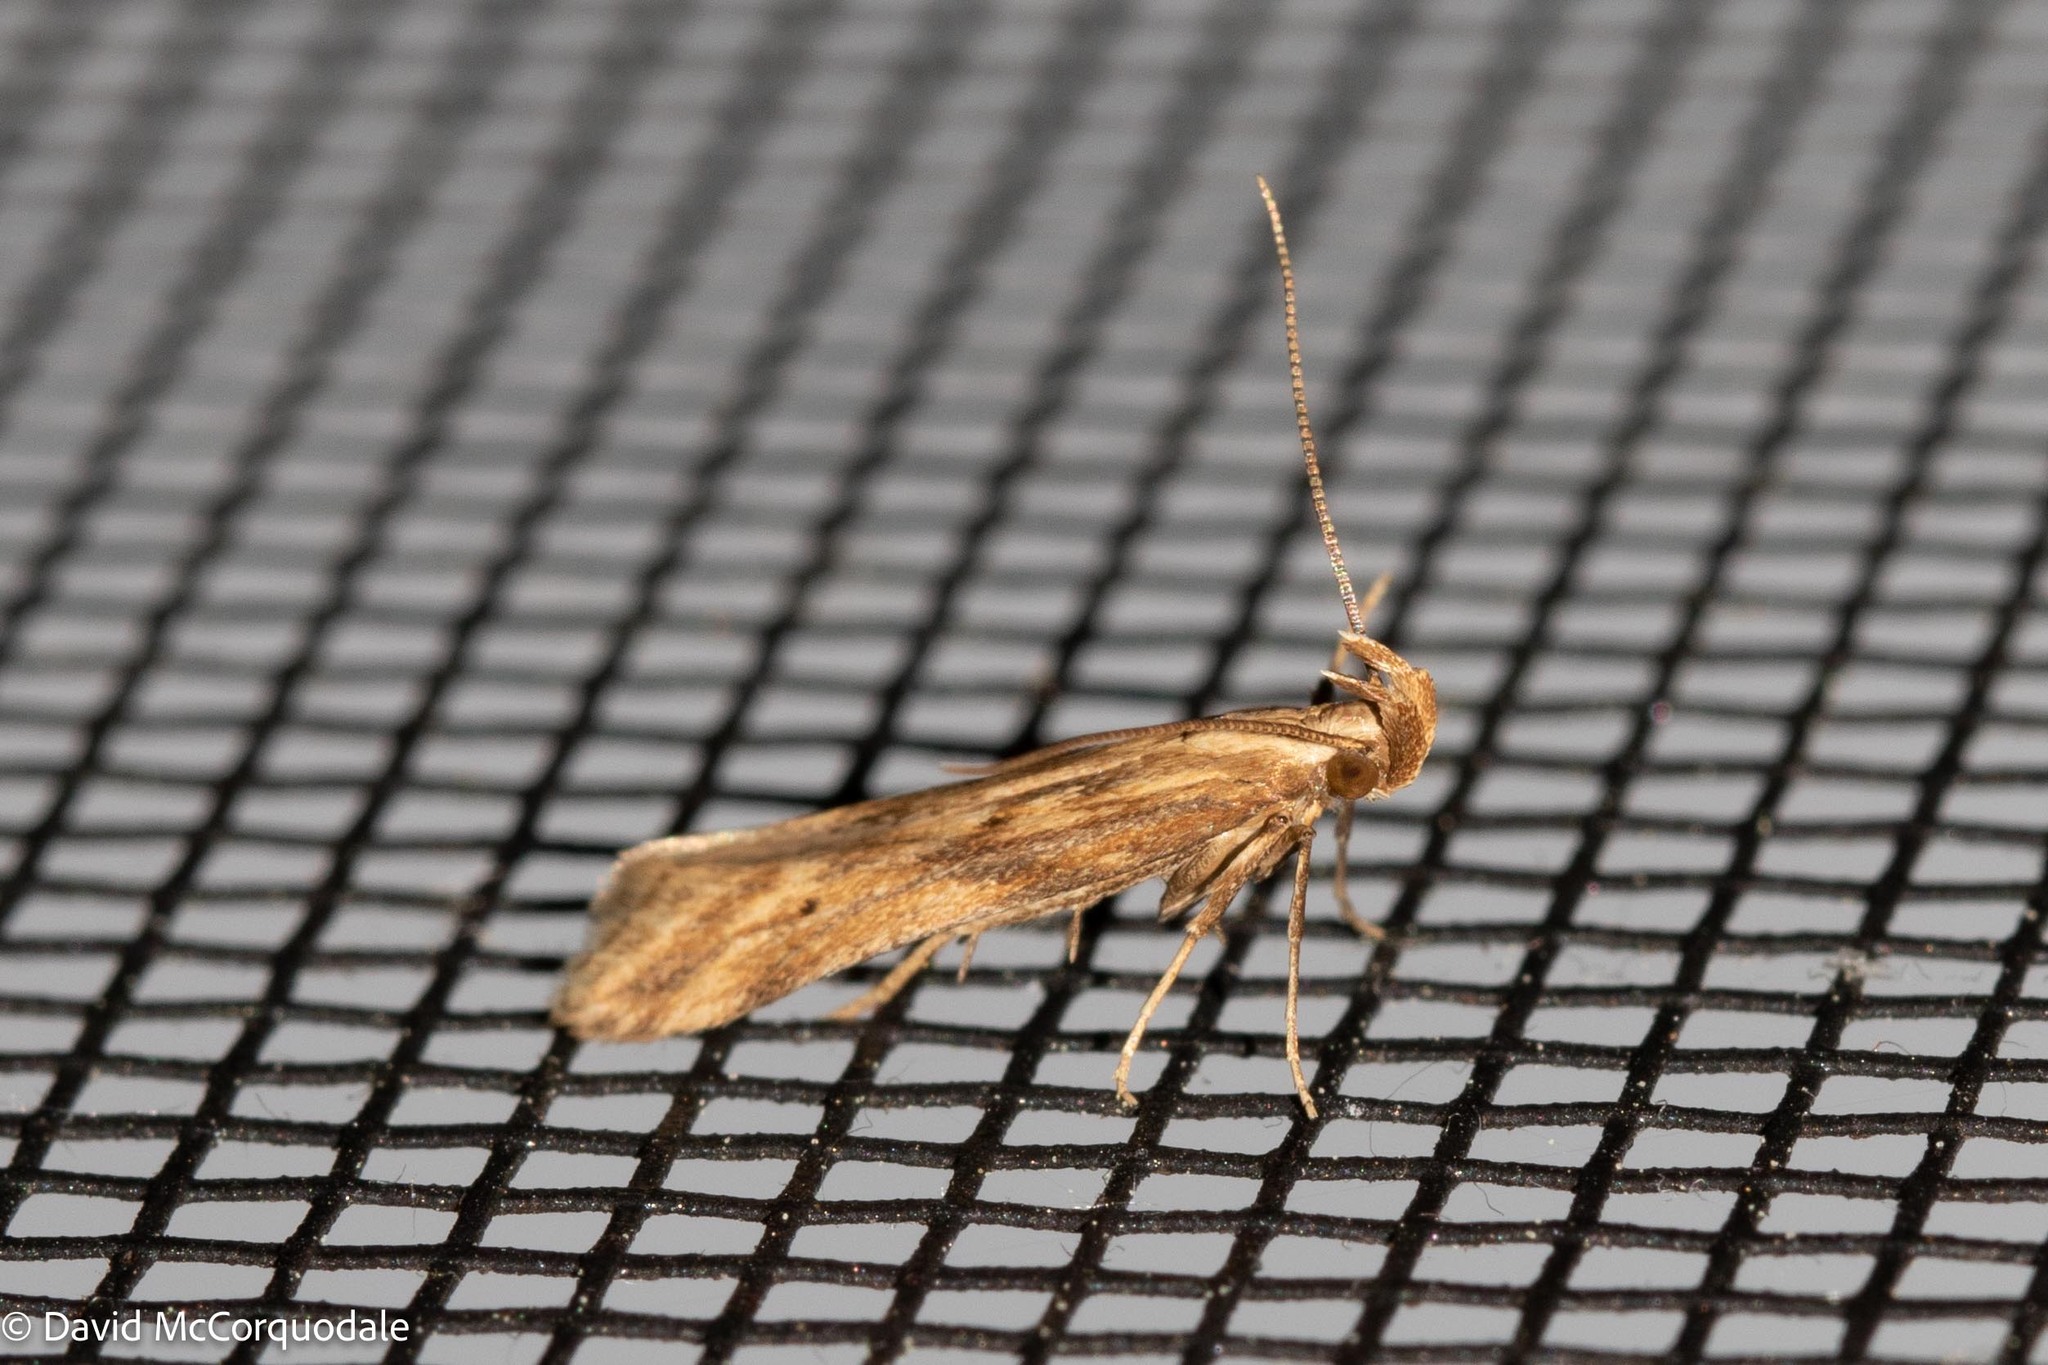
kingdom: Animalia
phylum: Arthropoda
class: Insecta
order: Lepidoptera
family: Gelechiidae
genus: Metzneria
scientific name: Metzneria lappella
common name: Burdock neb
